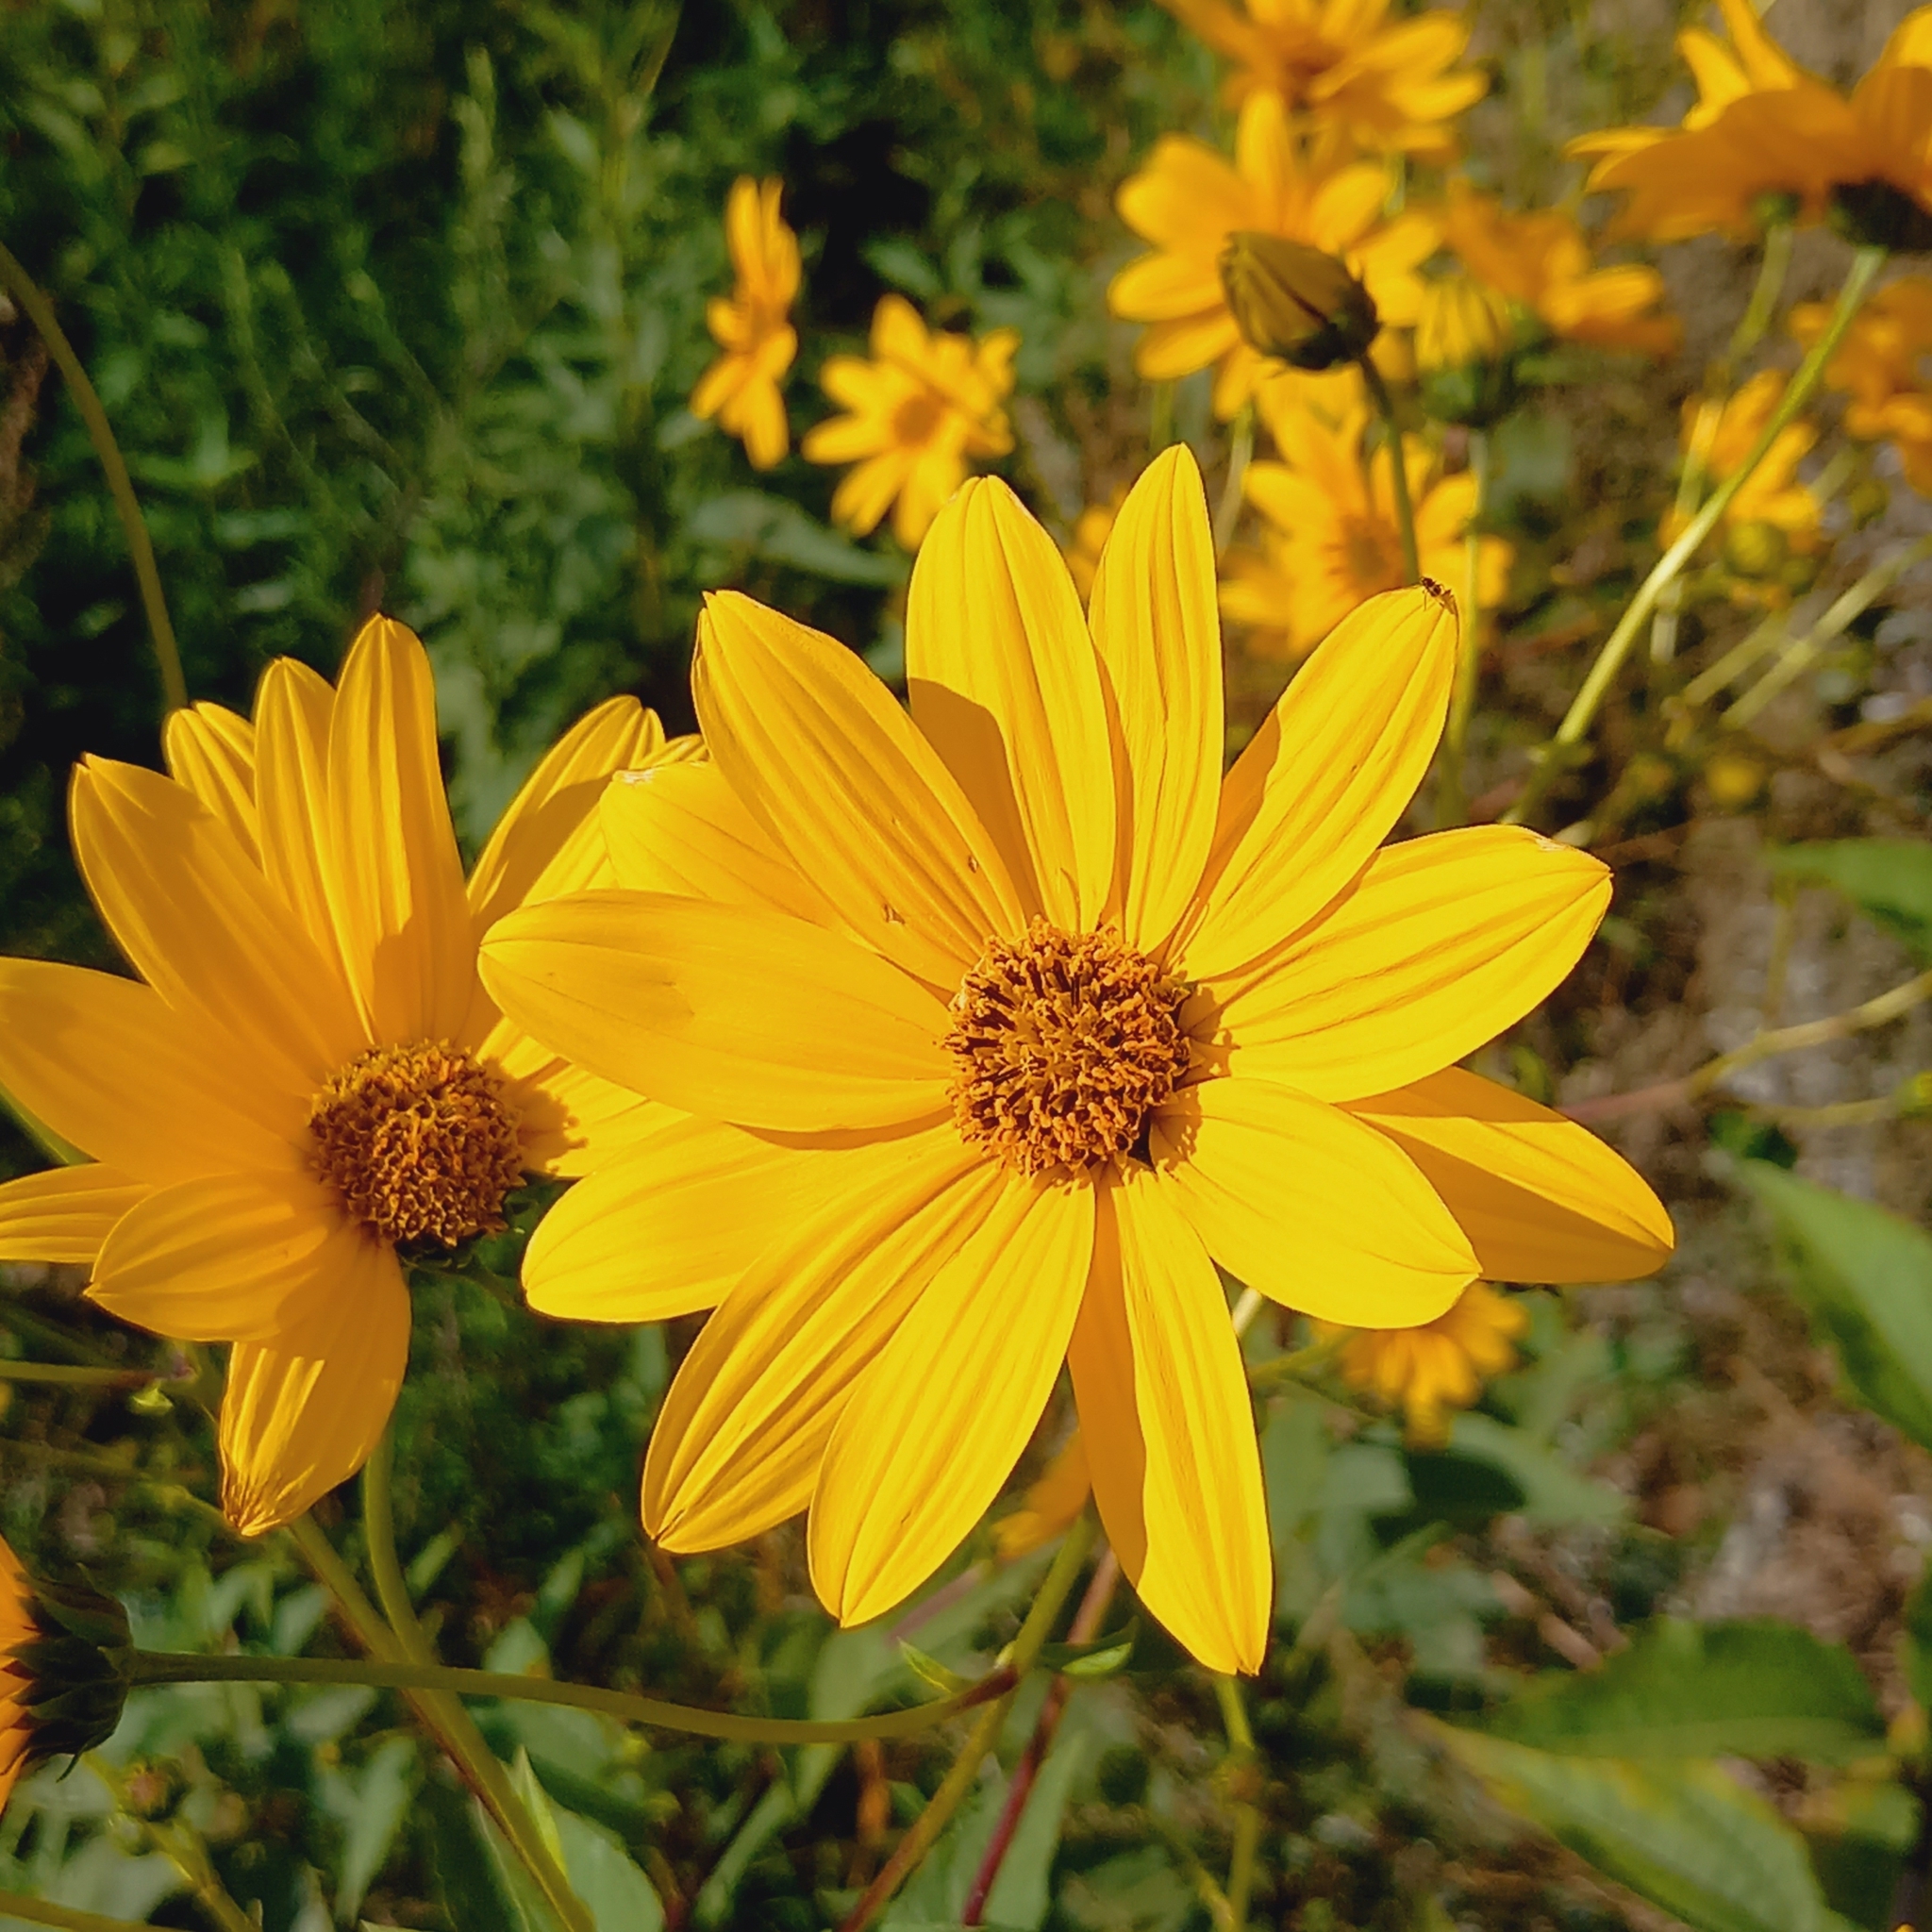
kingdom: Plantae
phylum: Tracheophyta
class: Magnoliopsida
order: Asterales
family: Asteraceae
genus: Helianthus
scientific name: Helianthus tuberosus
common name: Jerusalem artichoke
